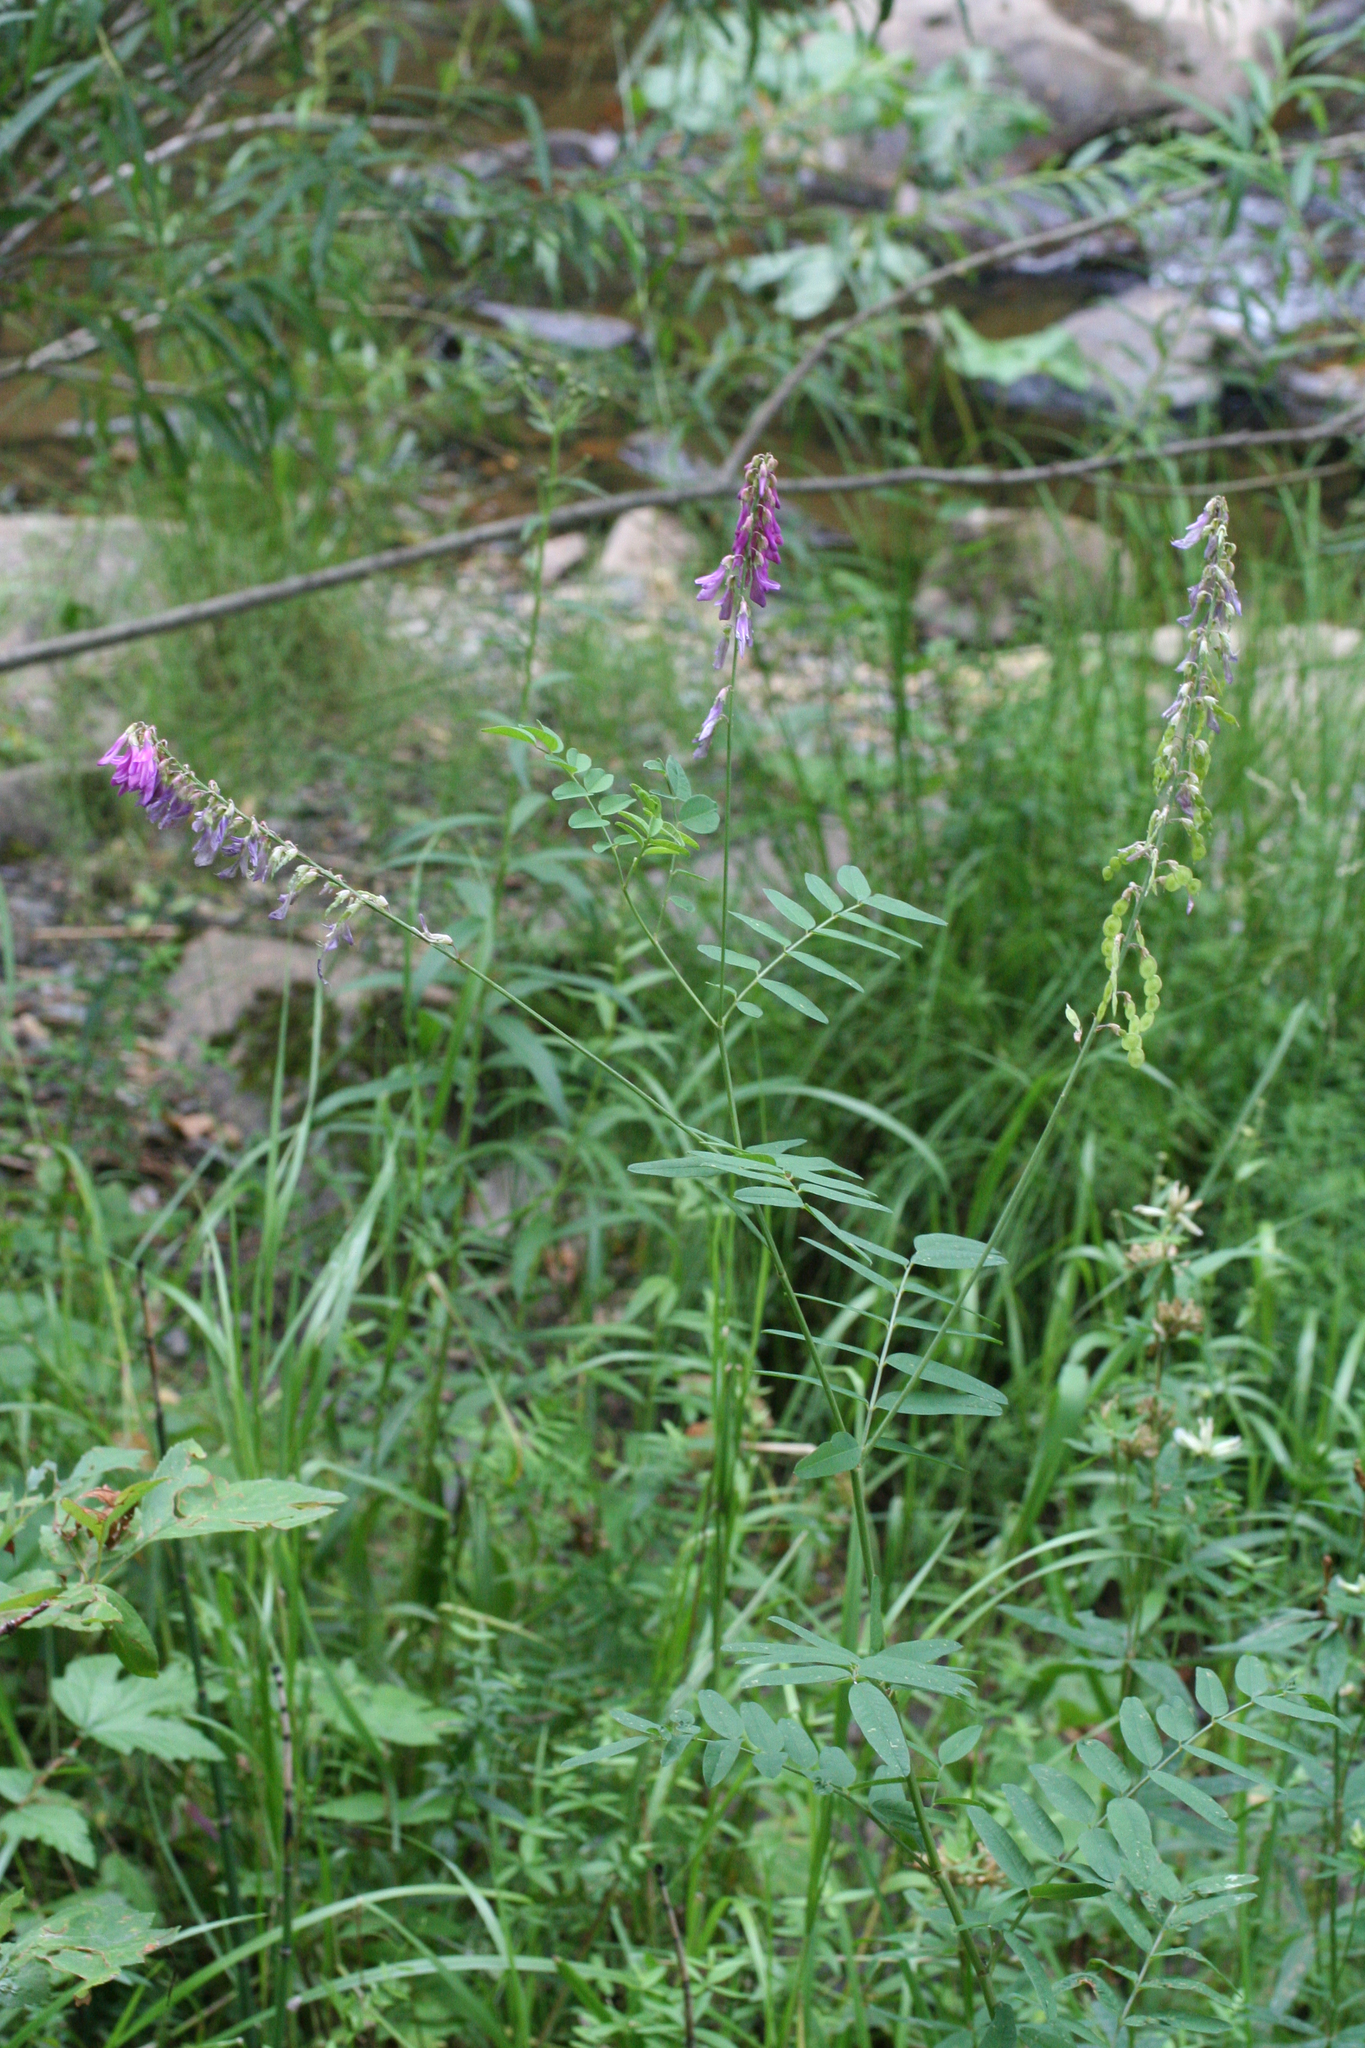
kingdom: Plantae
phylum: Tracheophyta
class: Magnoliopsida
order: Fabales
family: Fabaceae
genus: Hedysarum
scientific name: Hedysarum alpinum
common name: Alpine sweet-vetch
